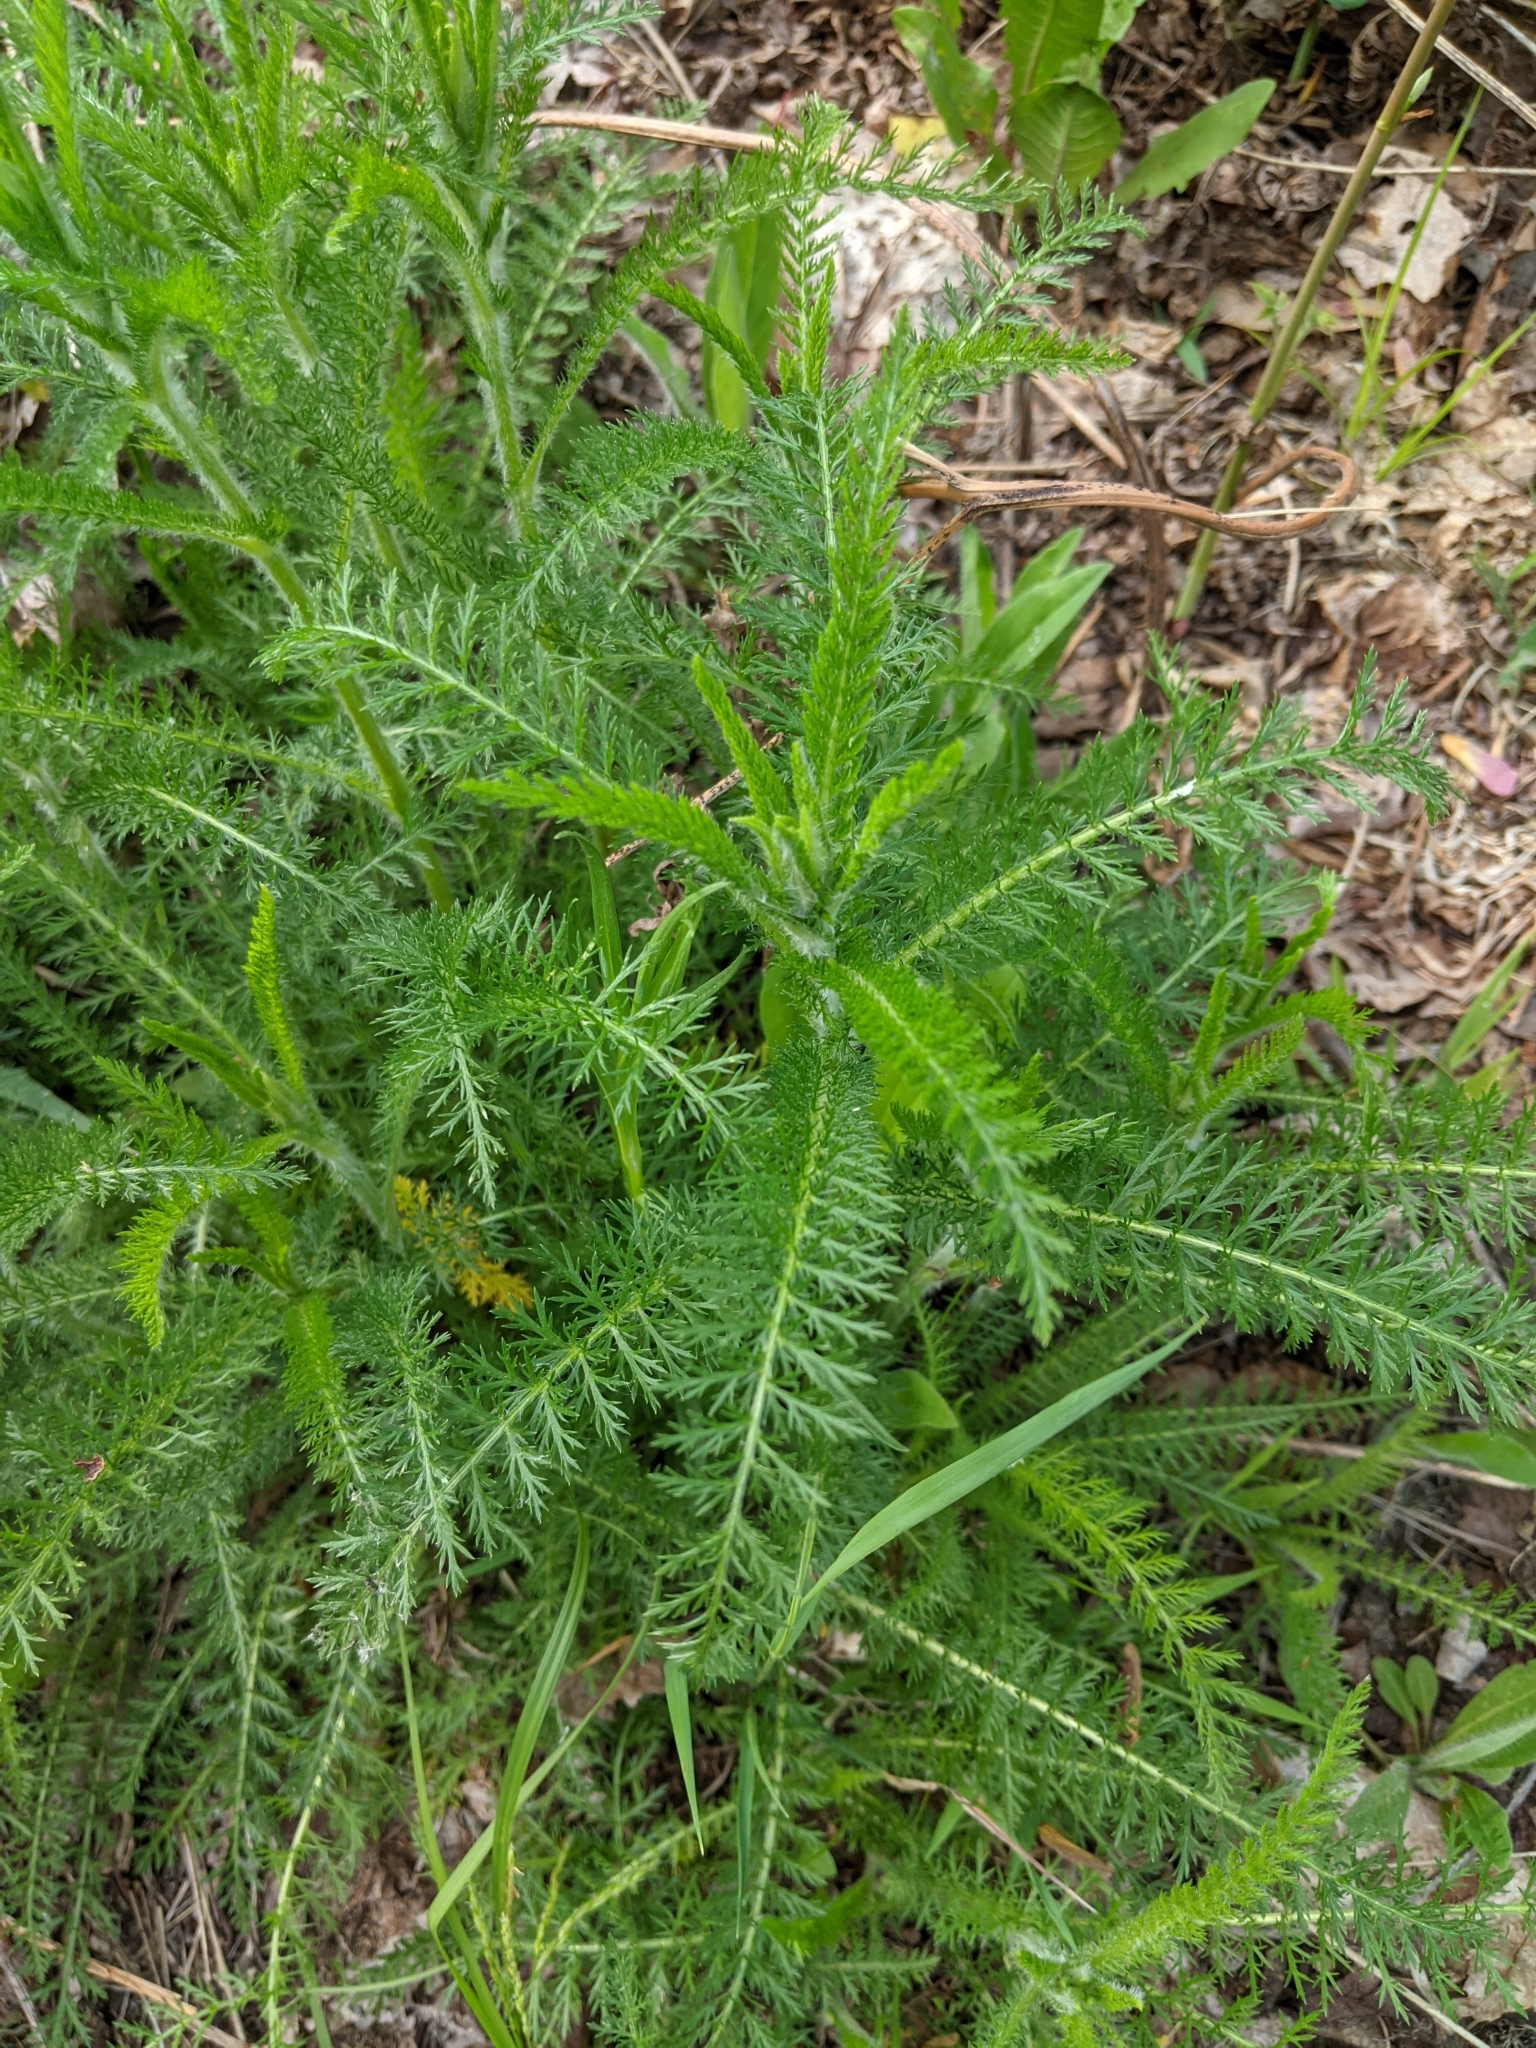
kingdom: Plantae
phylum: Tracheophyta
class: Magnoliopsida
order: Asterales
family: Asteraceae
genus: Achillea
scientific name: Achillea millefolium
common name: Yarrow
